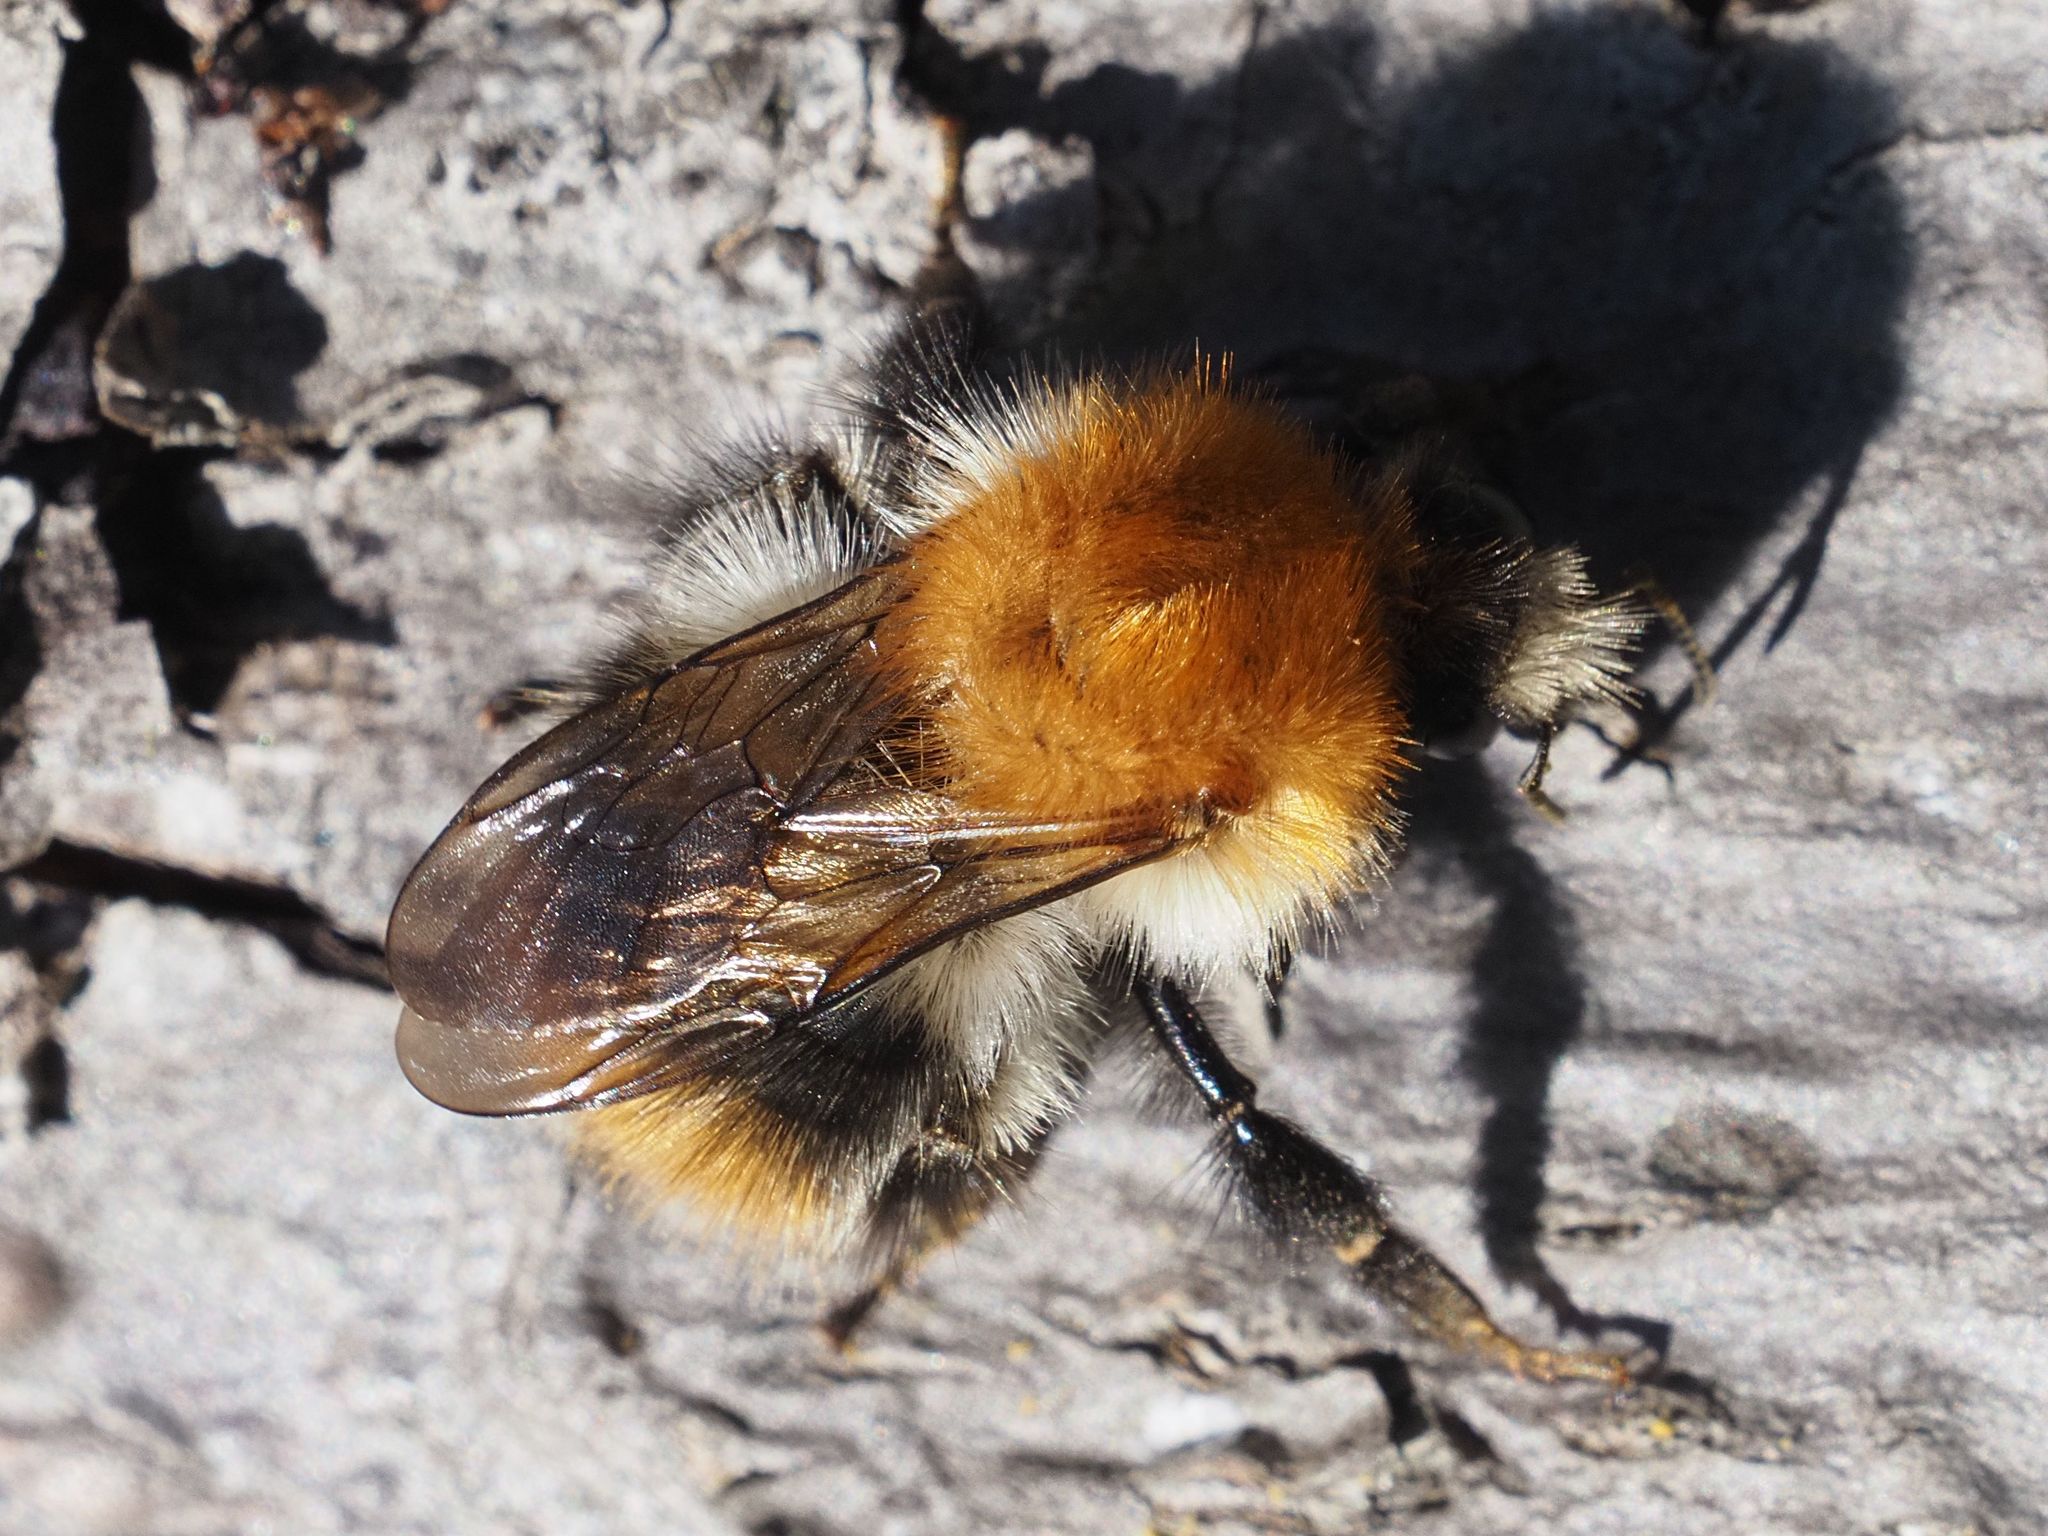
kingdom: Animalia
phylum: Arthropoda
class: Insecta
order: Hymenoptera
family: Apidae
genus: Bombus
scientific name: Bombus pascuorum
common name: Common carder bee
